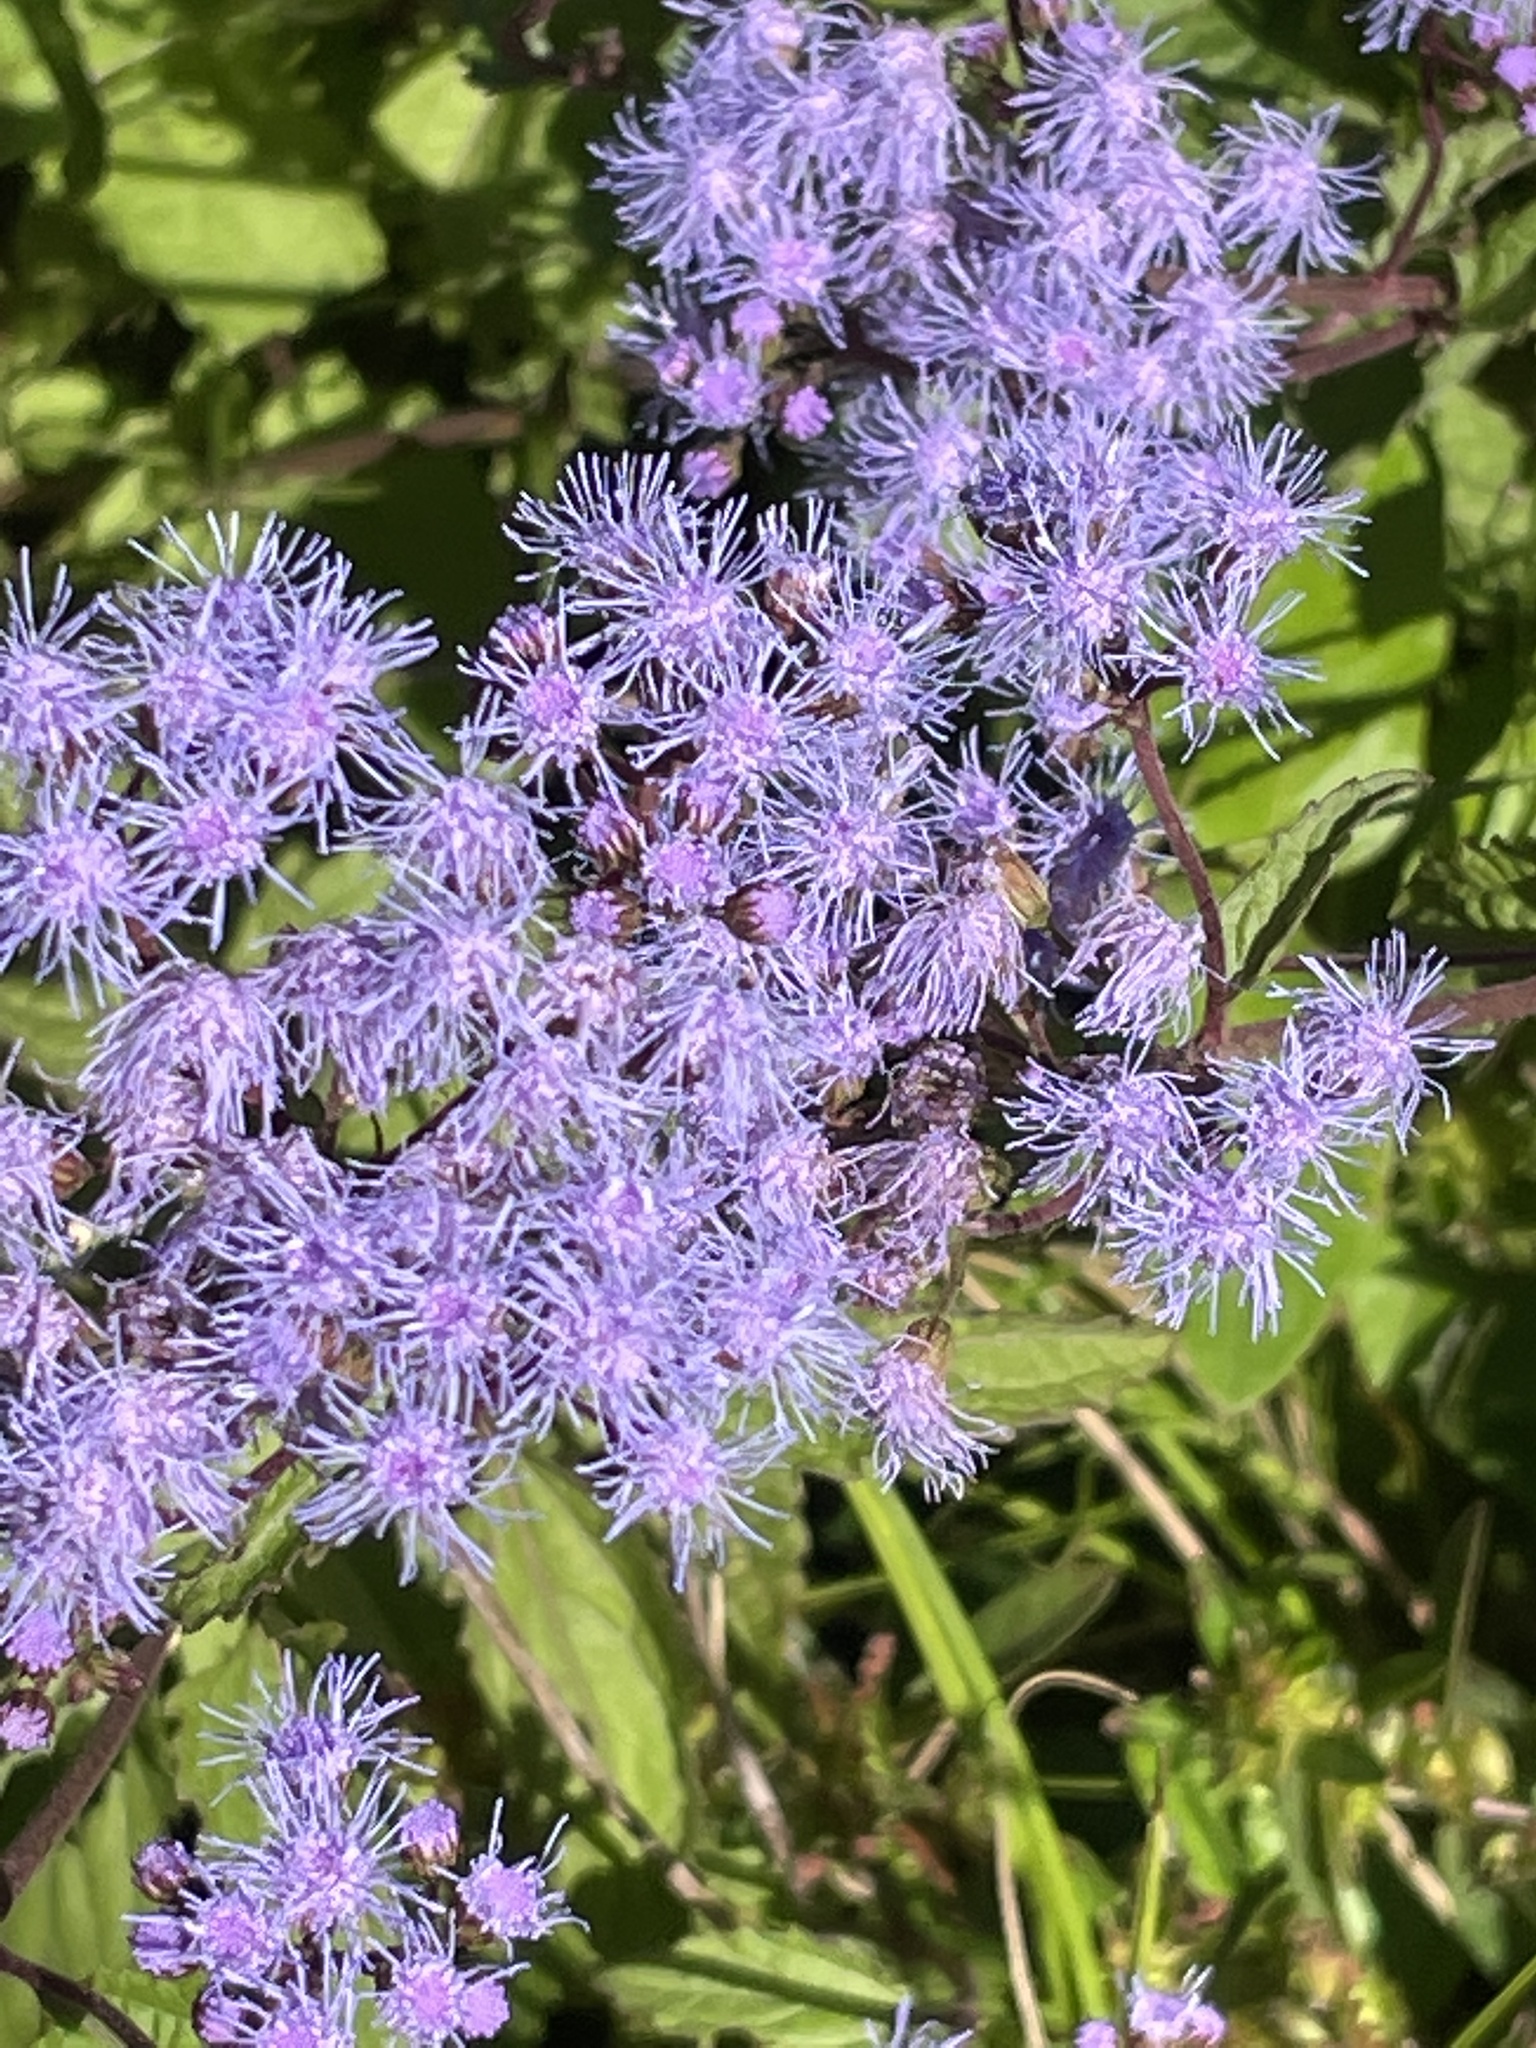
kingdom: Plantae
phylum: Tracheophyta
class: Magnoliopsida
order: Asterales
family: Asteraceae
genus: Conoclinium
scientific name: Conoclinium coelestinum
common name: Blue mistflower
